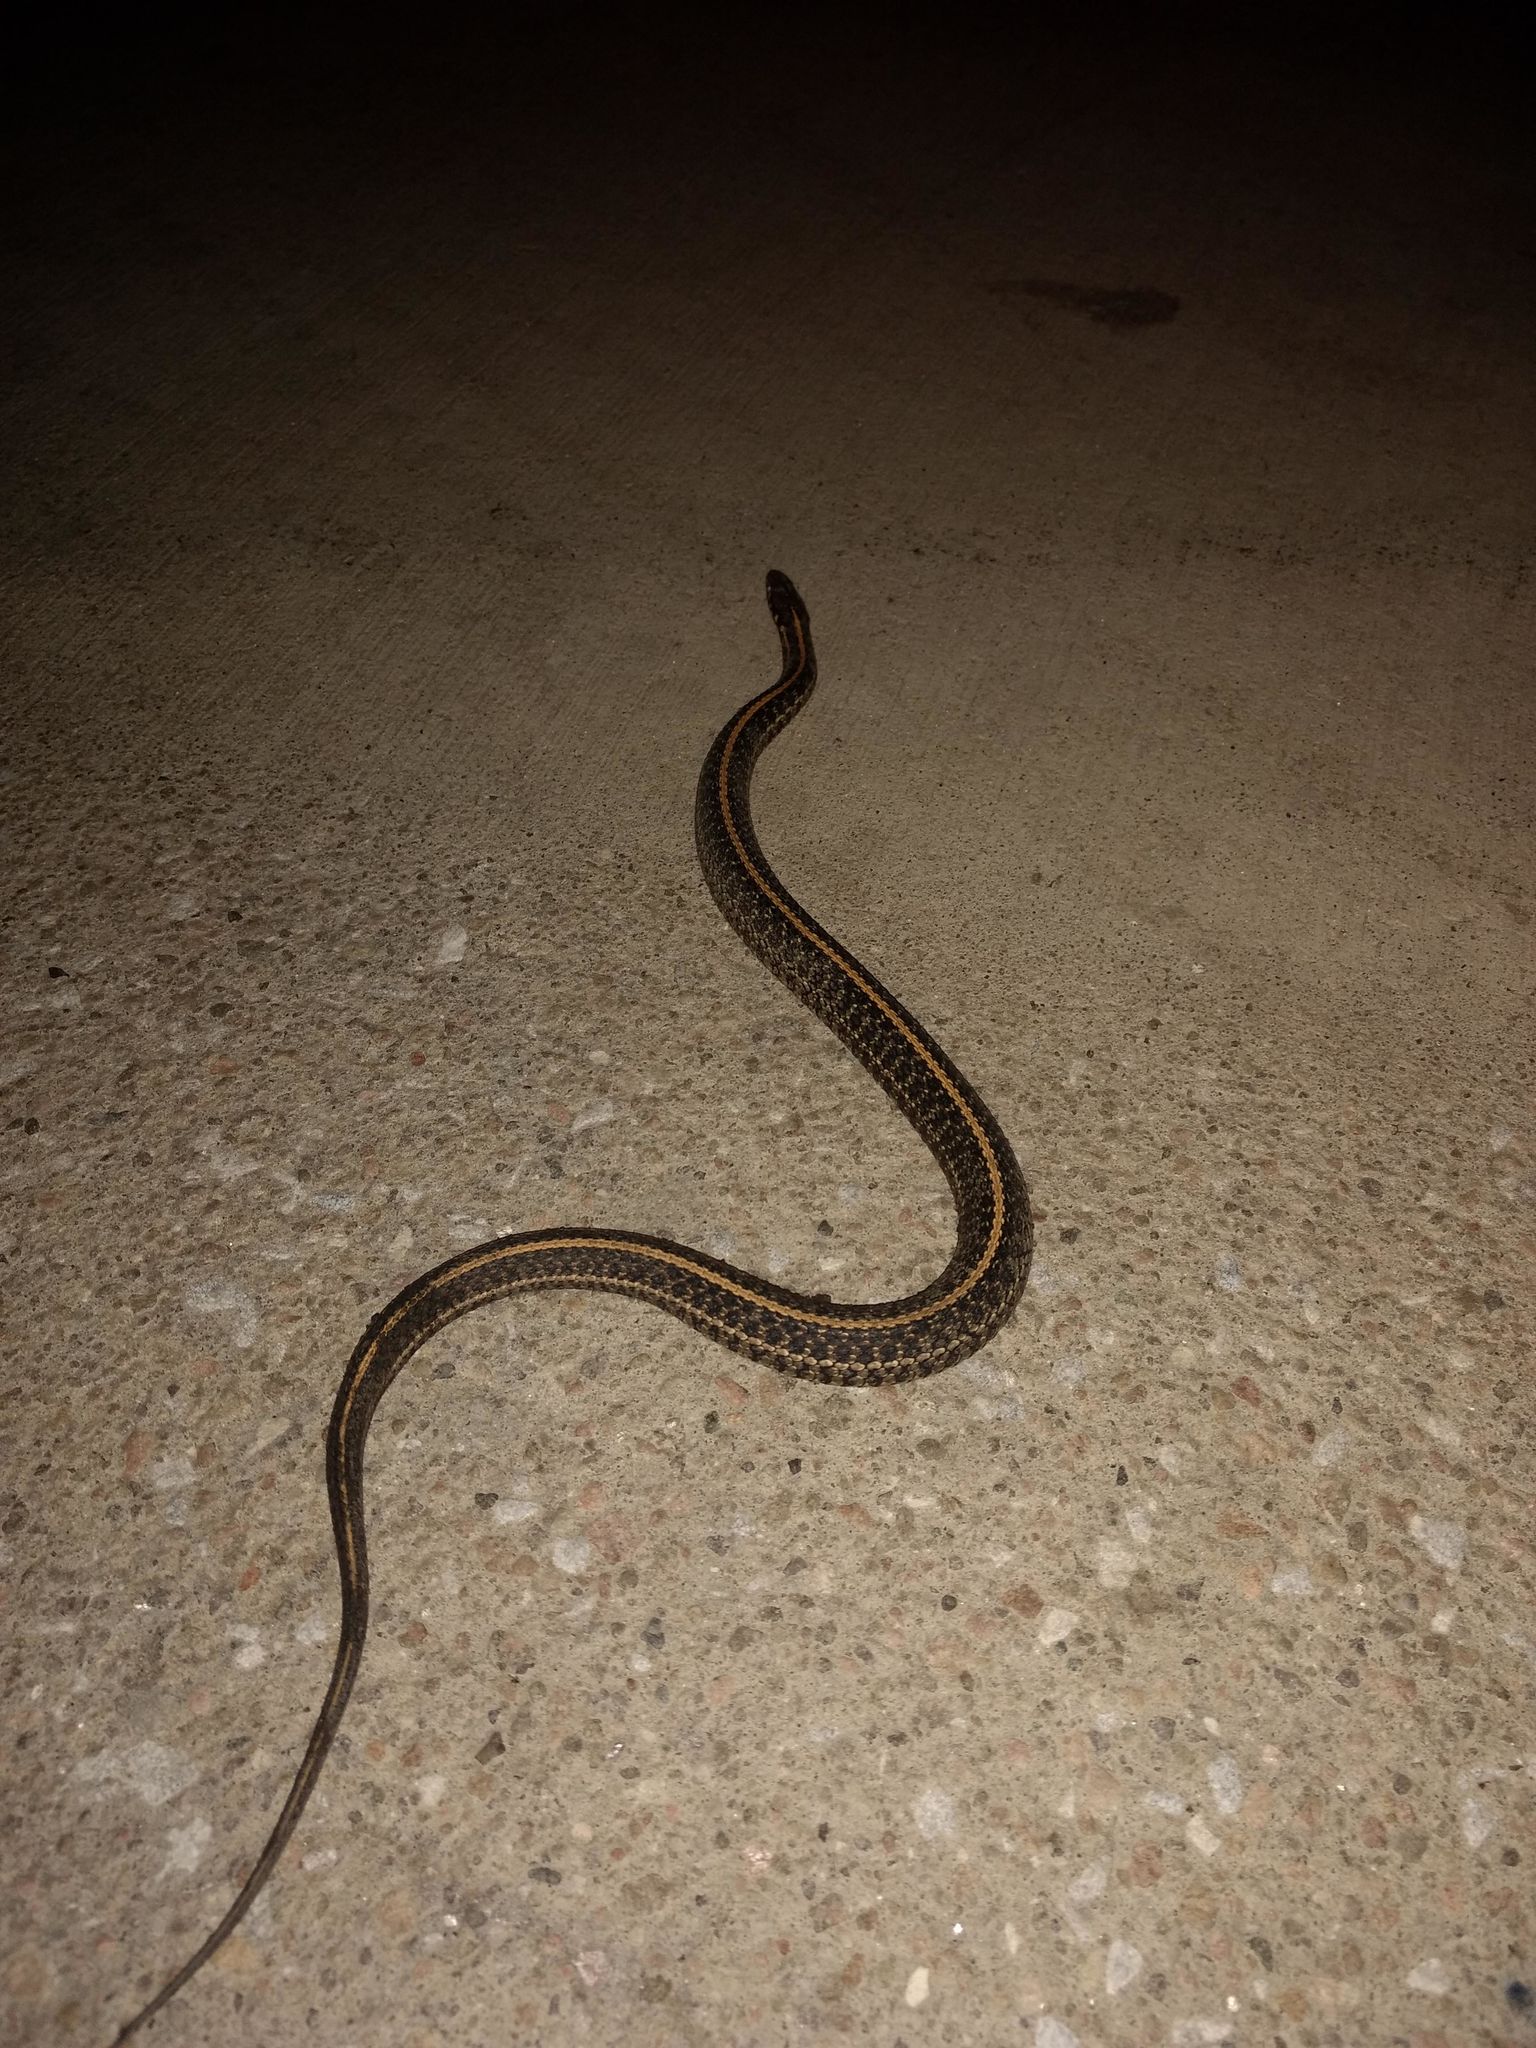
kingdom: Animalia
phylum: Chordata
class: Squamata
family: Colubridae
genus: Thamnophis
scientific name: Thamnophis radix
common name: Plains garter snake
